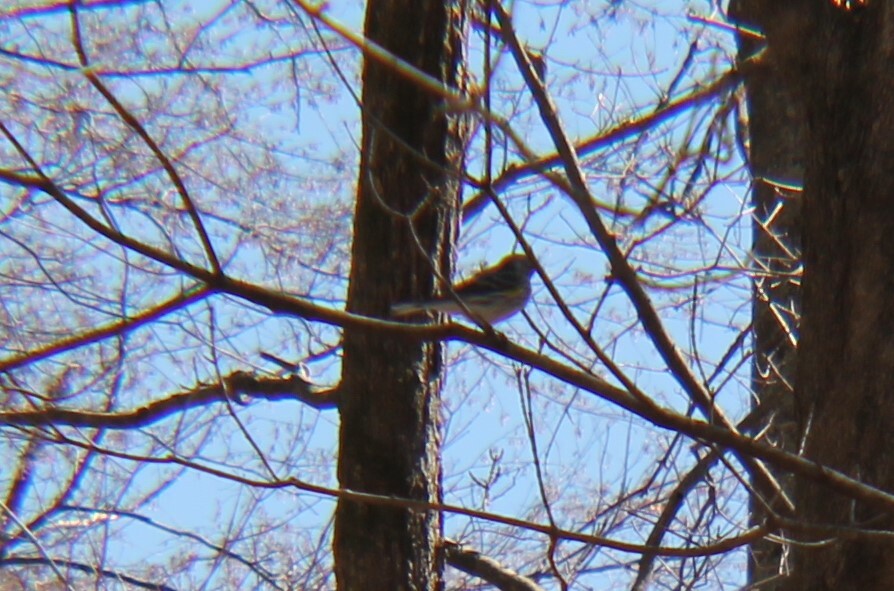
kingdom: Animalia
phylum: Chordata
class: Aves
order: Passeriformes
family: Parulidae
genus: Setophaga
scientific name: Setophaga coronata
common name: Myrtle warbler
